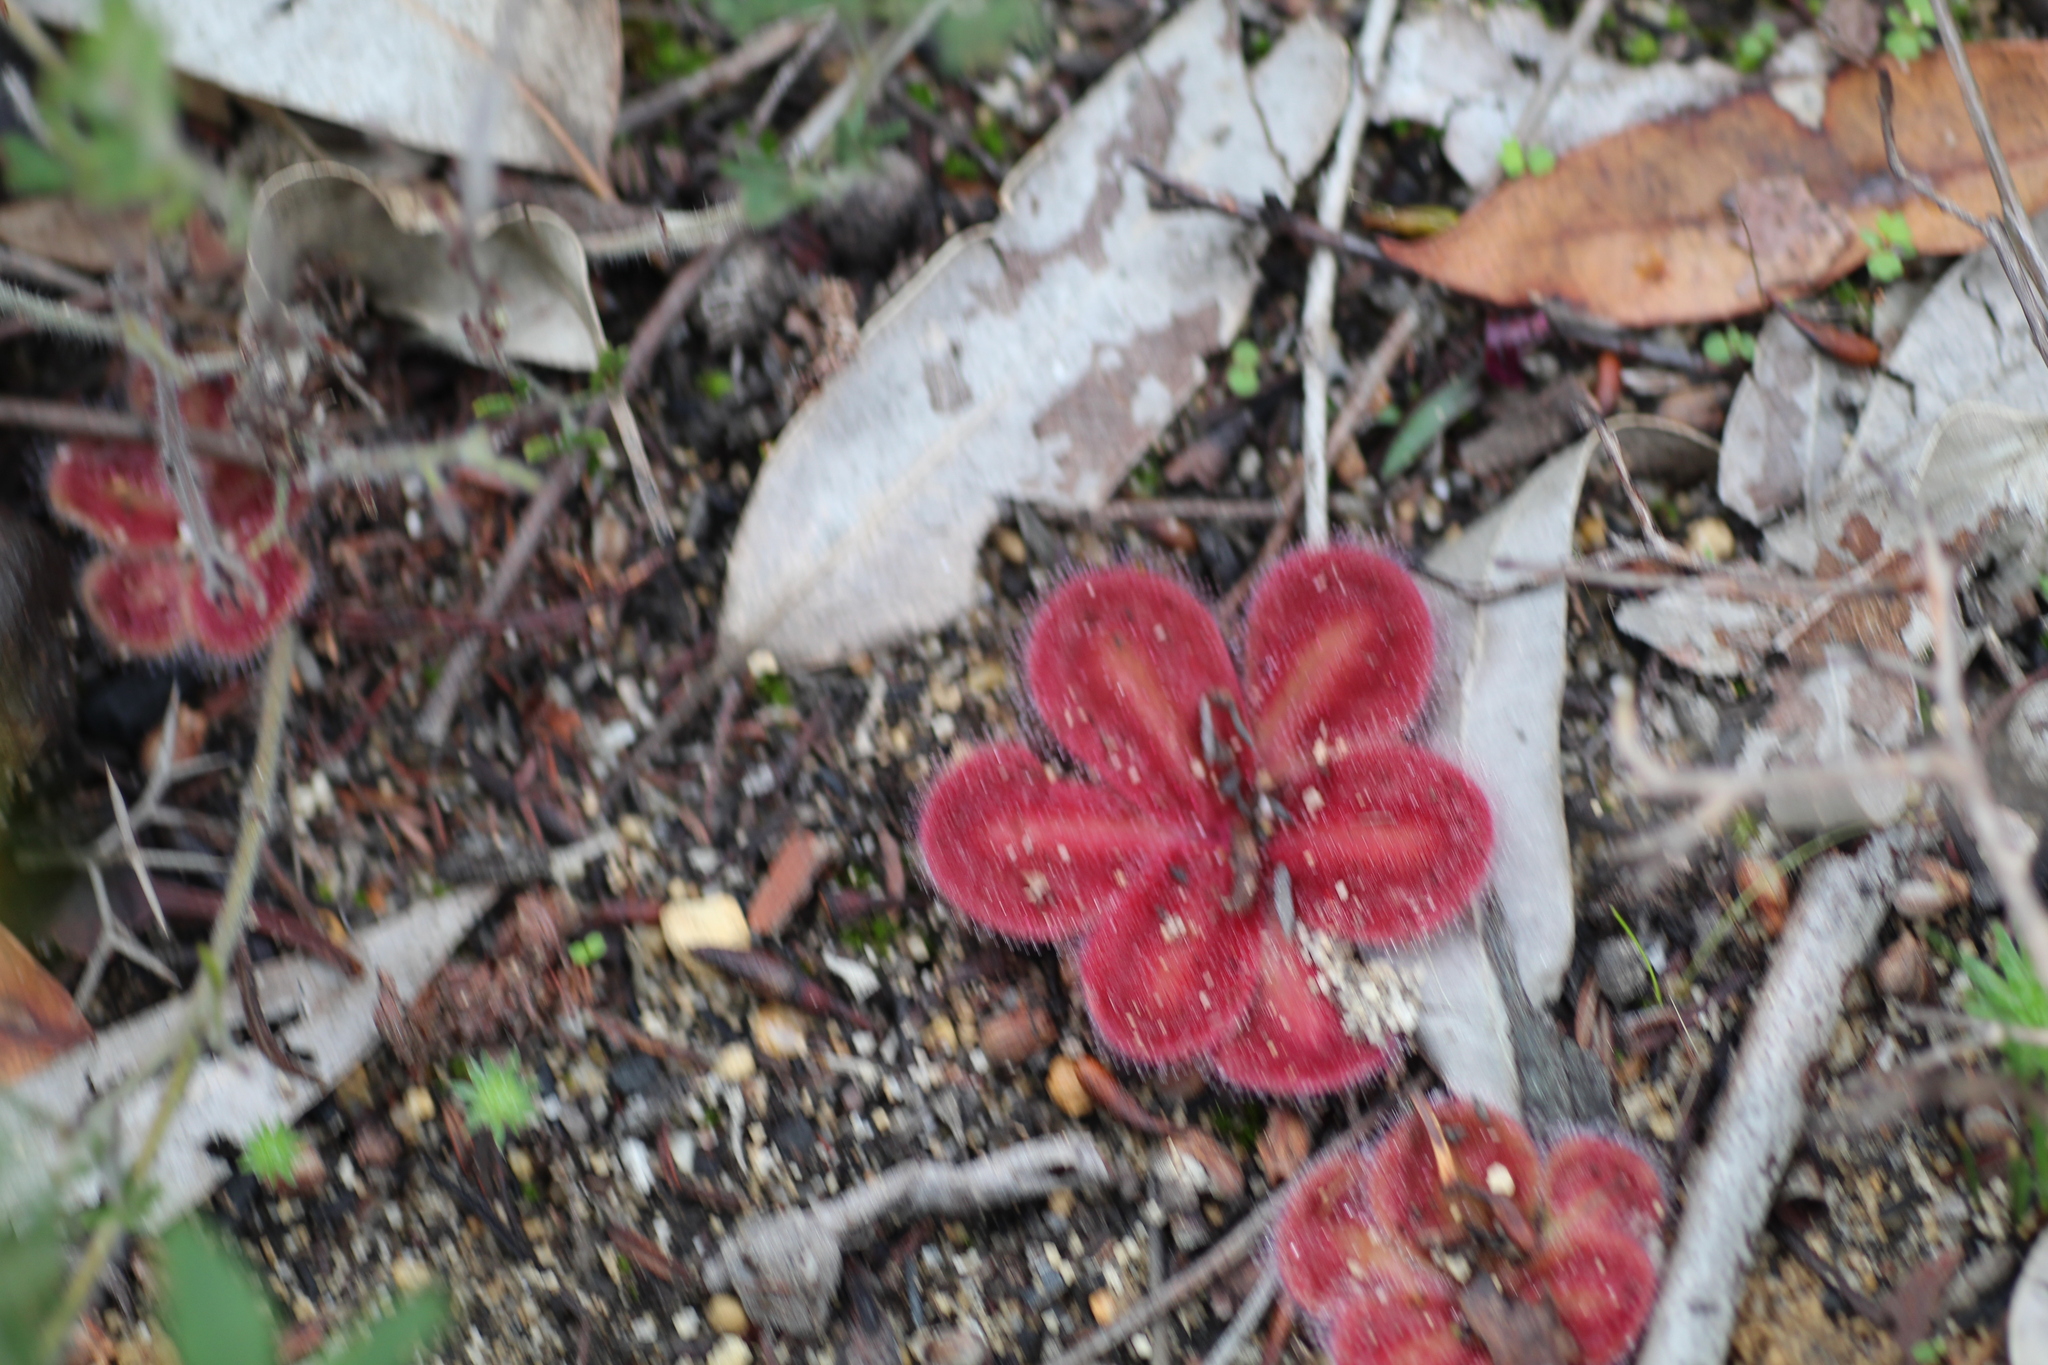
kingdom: Plantae
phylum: Tracheophyta
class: Magnoliopsida
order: Caryophyllales
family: Droseraceae
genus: Drosera
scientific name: Drosera erythrorhiza
